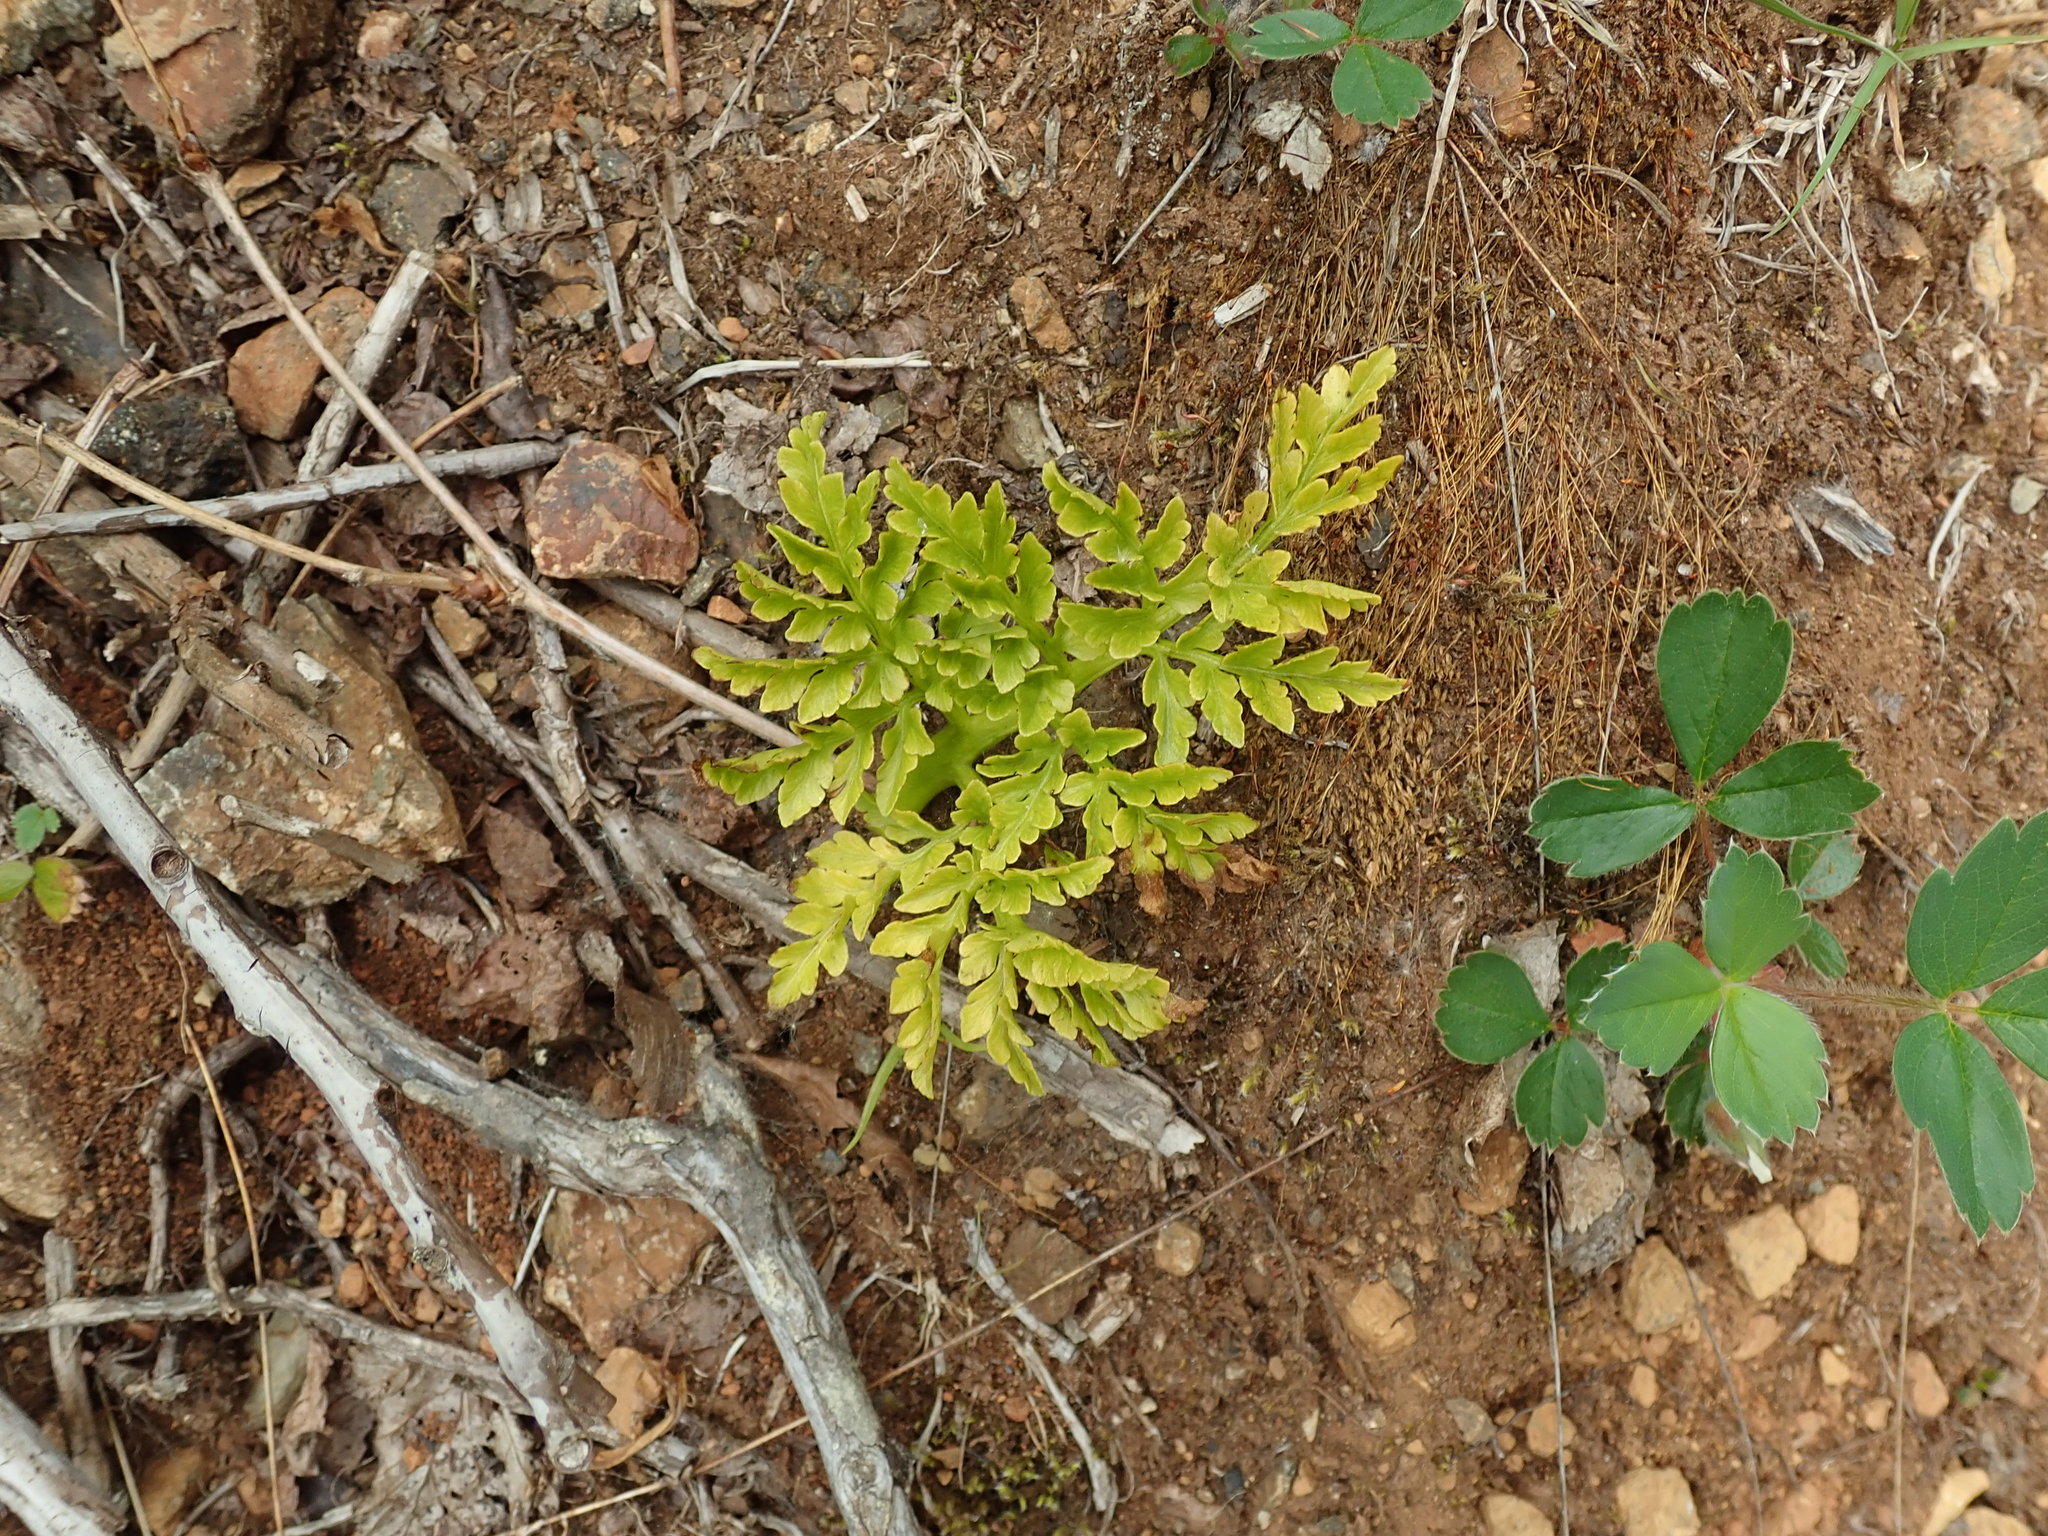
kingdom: Plantae
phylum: Tracheophyta
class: Polypodiopsida
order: Ophioglossales
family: Ophioglossaceae
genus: Sceptridium
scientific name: Sceptridium multifidum
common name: Leathery grape fern
